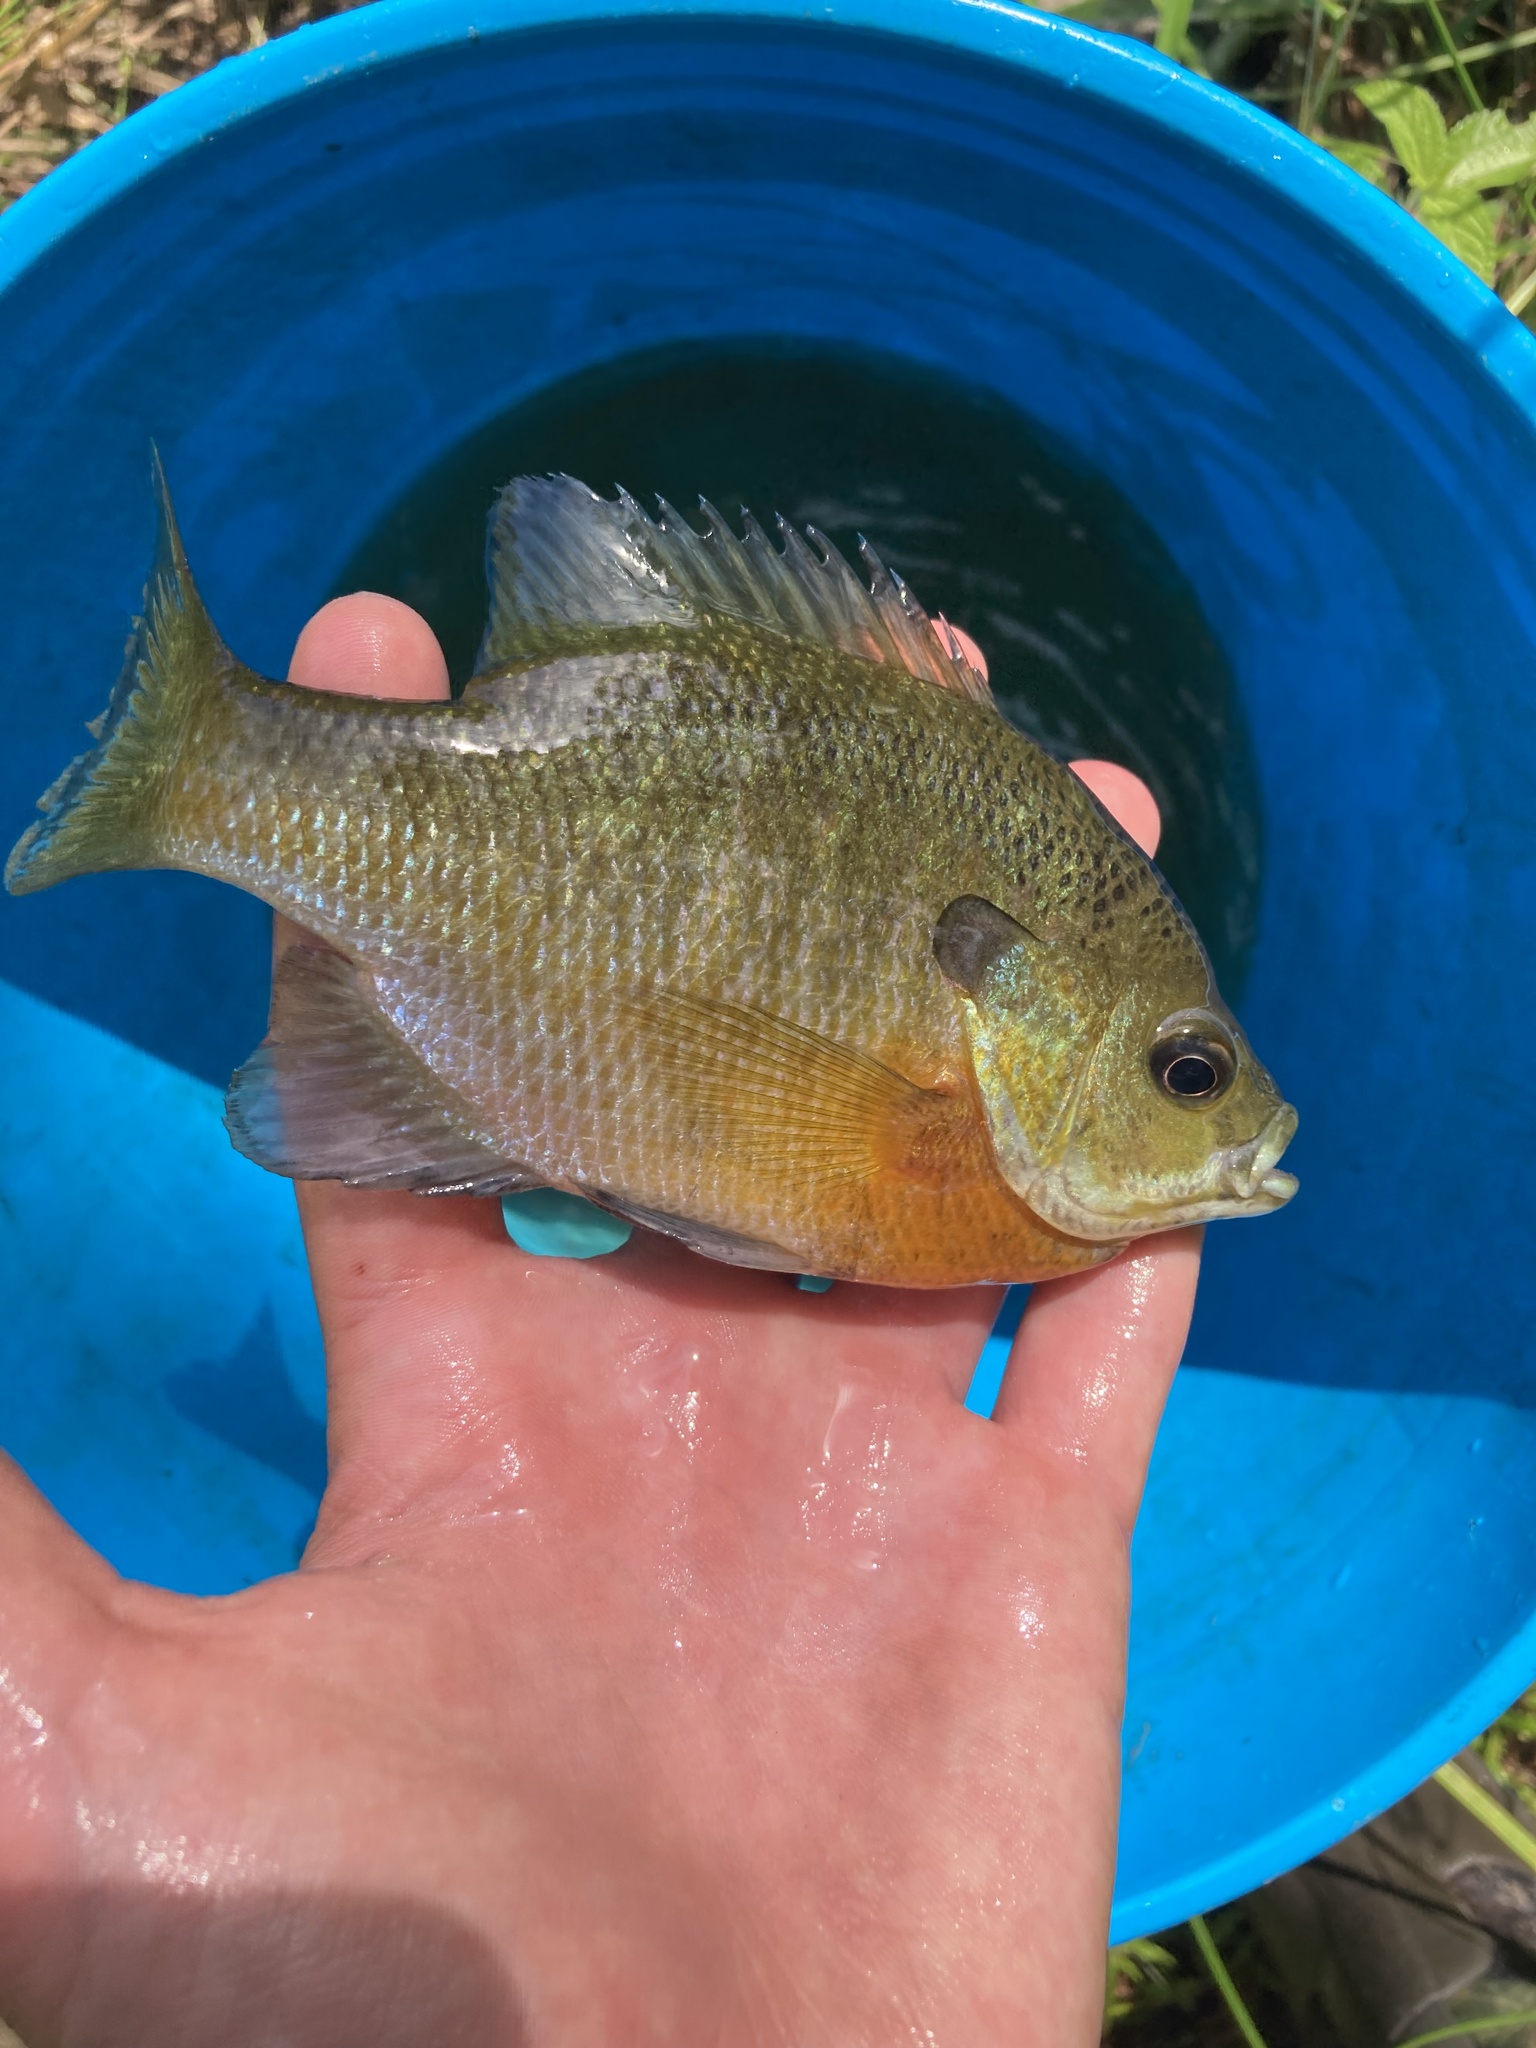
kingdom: Animalia
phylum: Chordata
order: Perciformes
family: Centrarchidae
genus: Lepomis
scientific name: Lepomis macrochirus
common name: Bluegill
